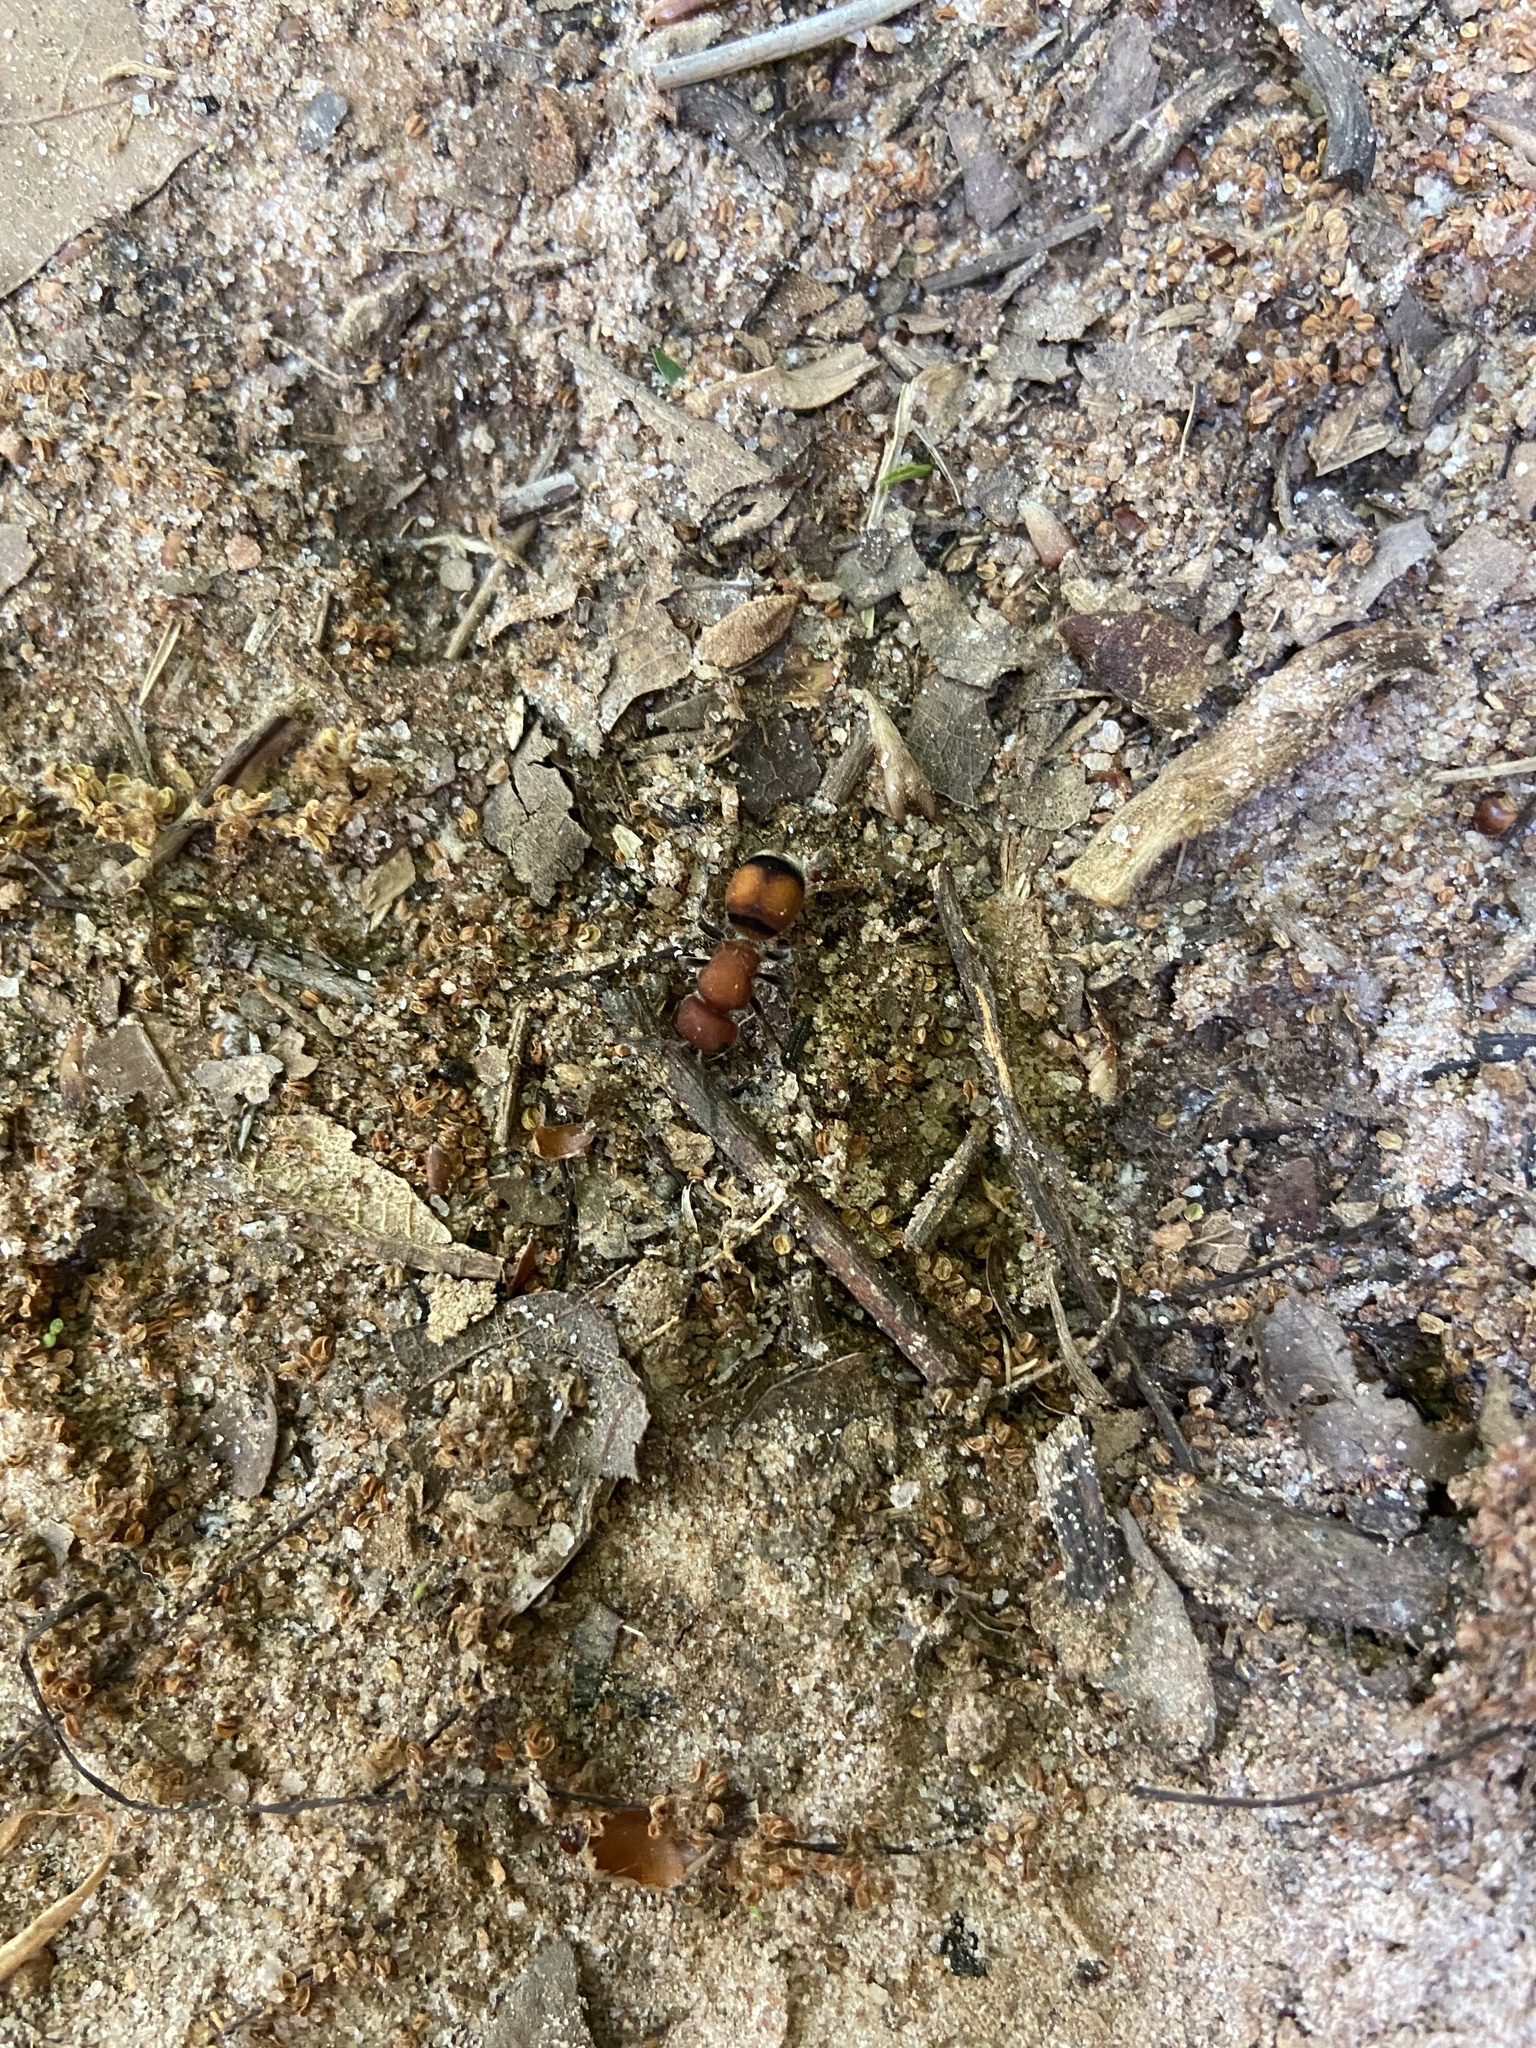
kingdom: Animalia
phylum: Arthropoda
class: Insecta
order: Hymenoptera
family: Mutillidae
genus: Pseudomethoca
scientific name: Pseudomethoca
